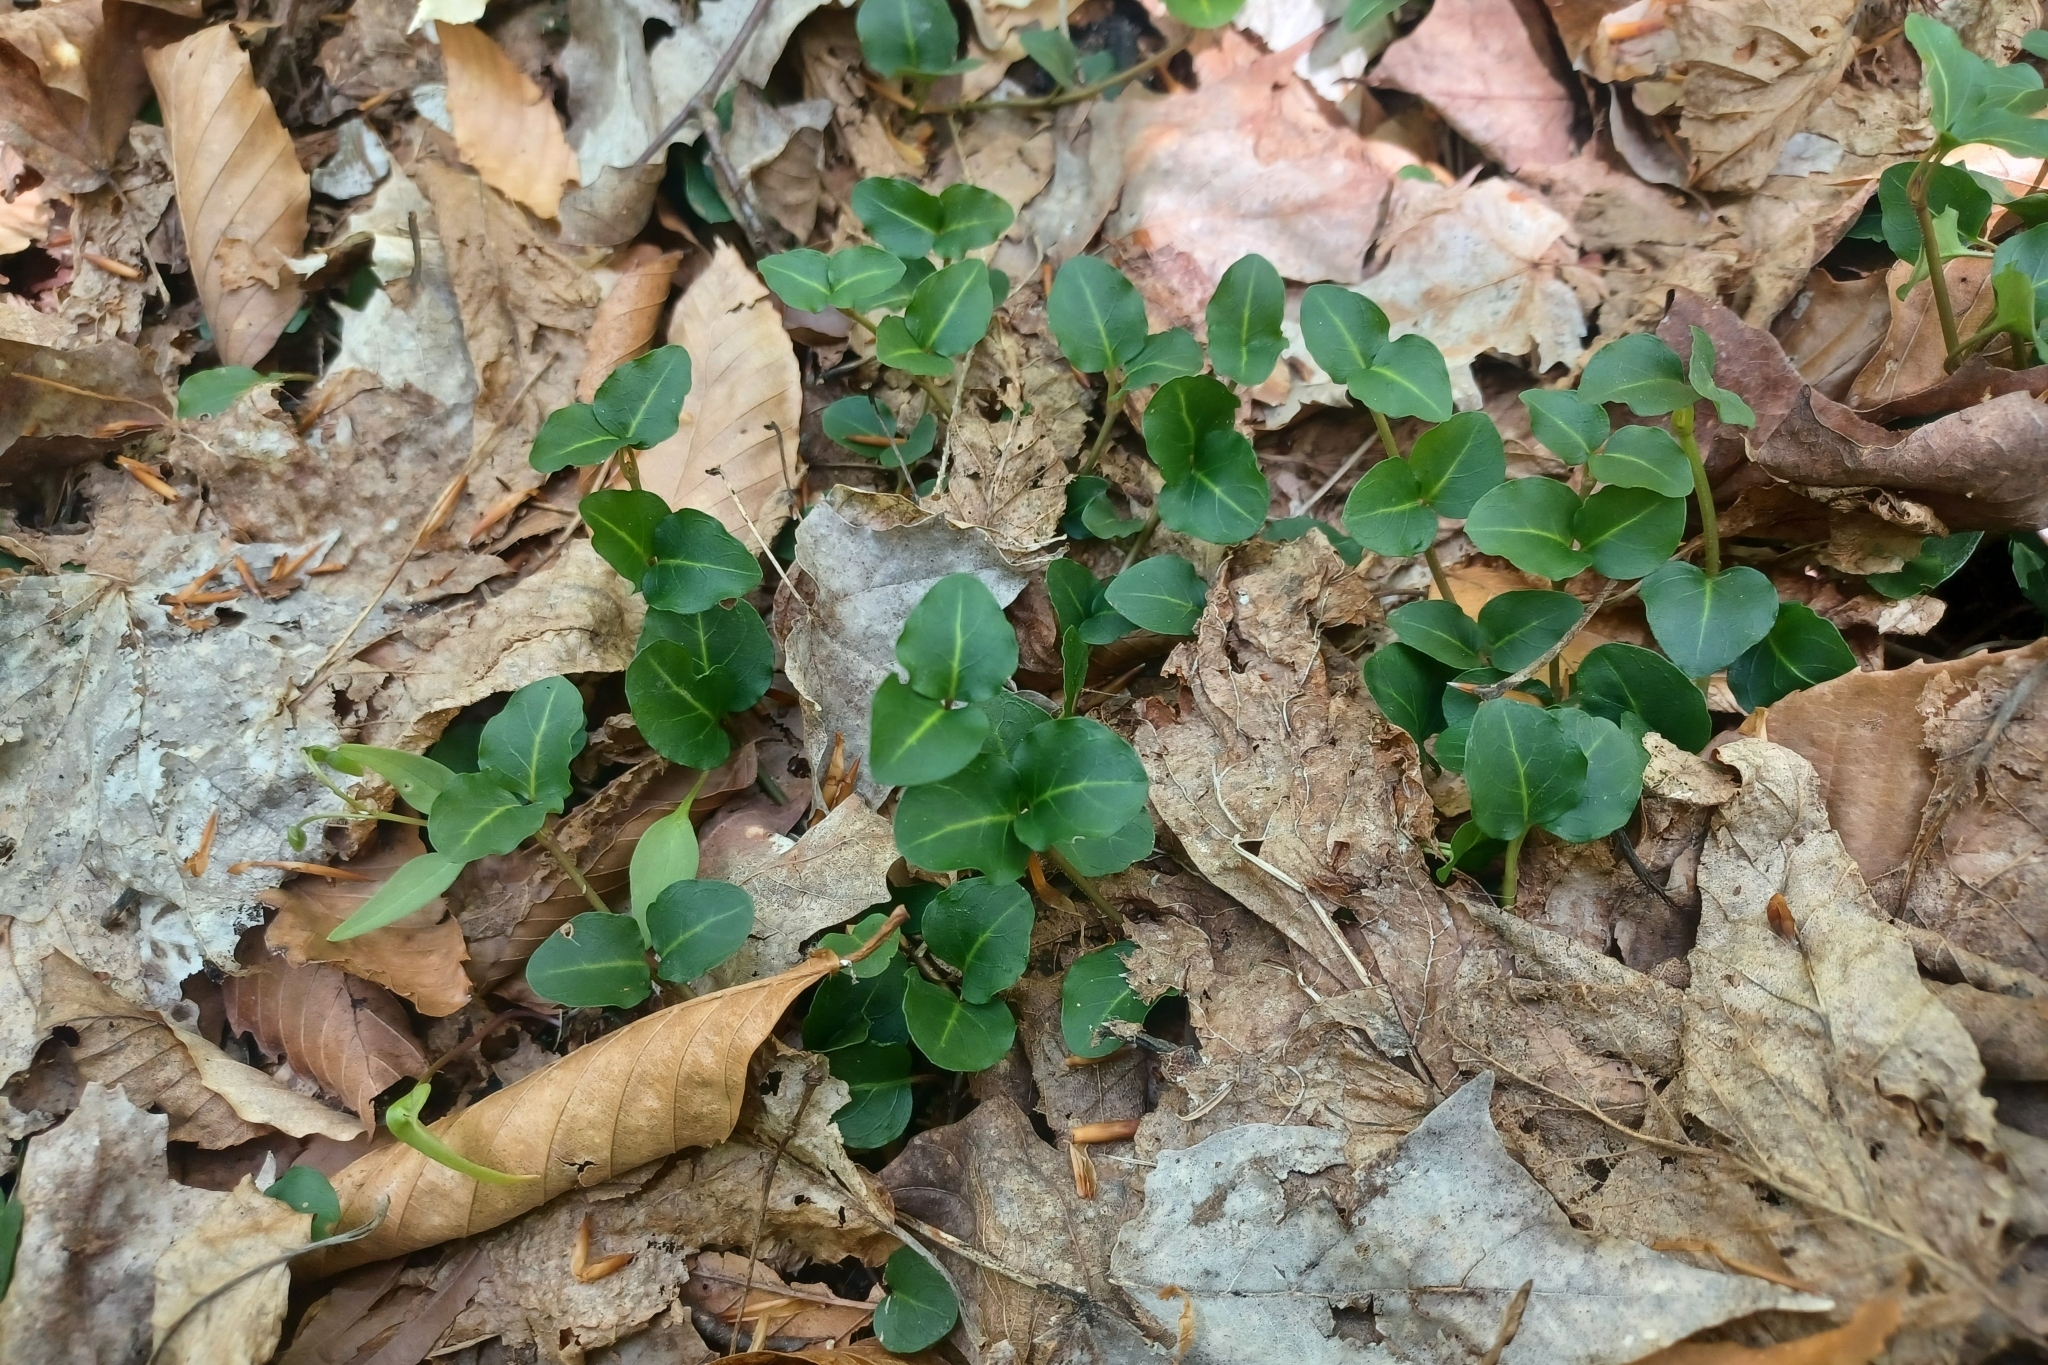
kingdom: Plantae
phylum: Tracheophyta
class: Magnoliopsida
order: Gentianales
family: Rubiaceae
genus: Mitchella
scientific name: Mitchella repens
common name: Partridge-berry
